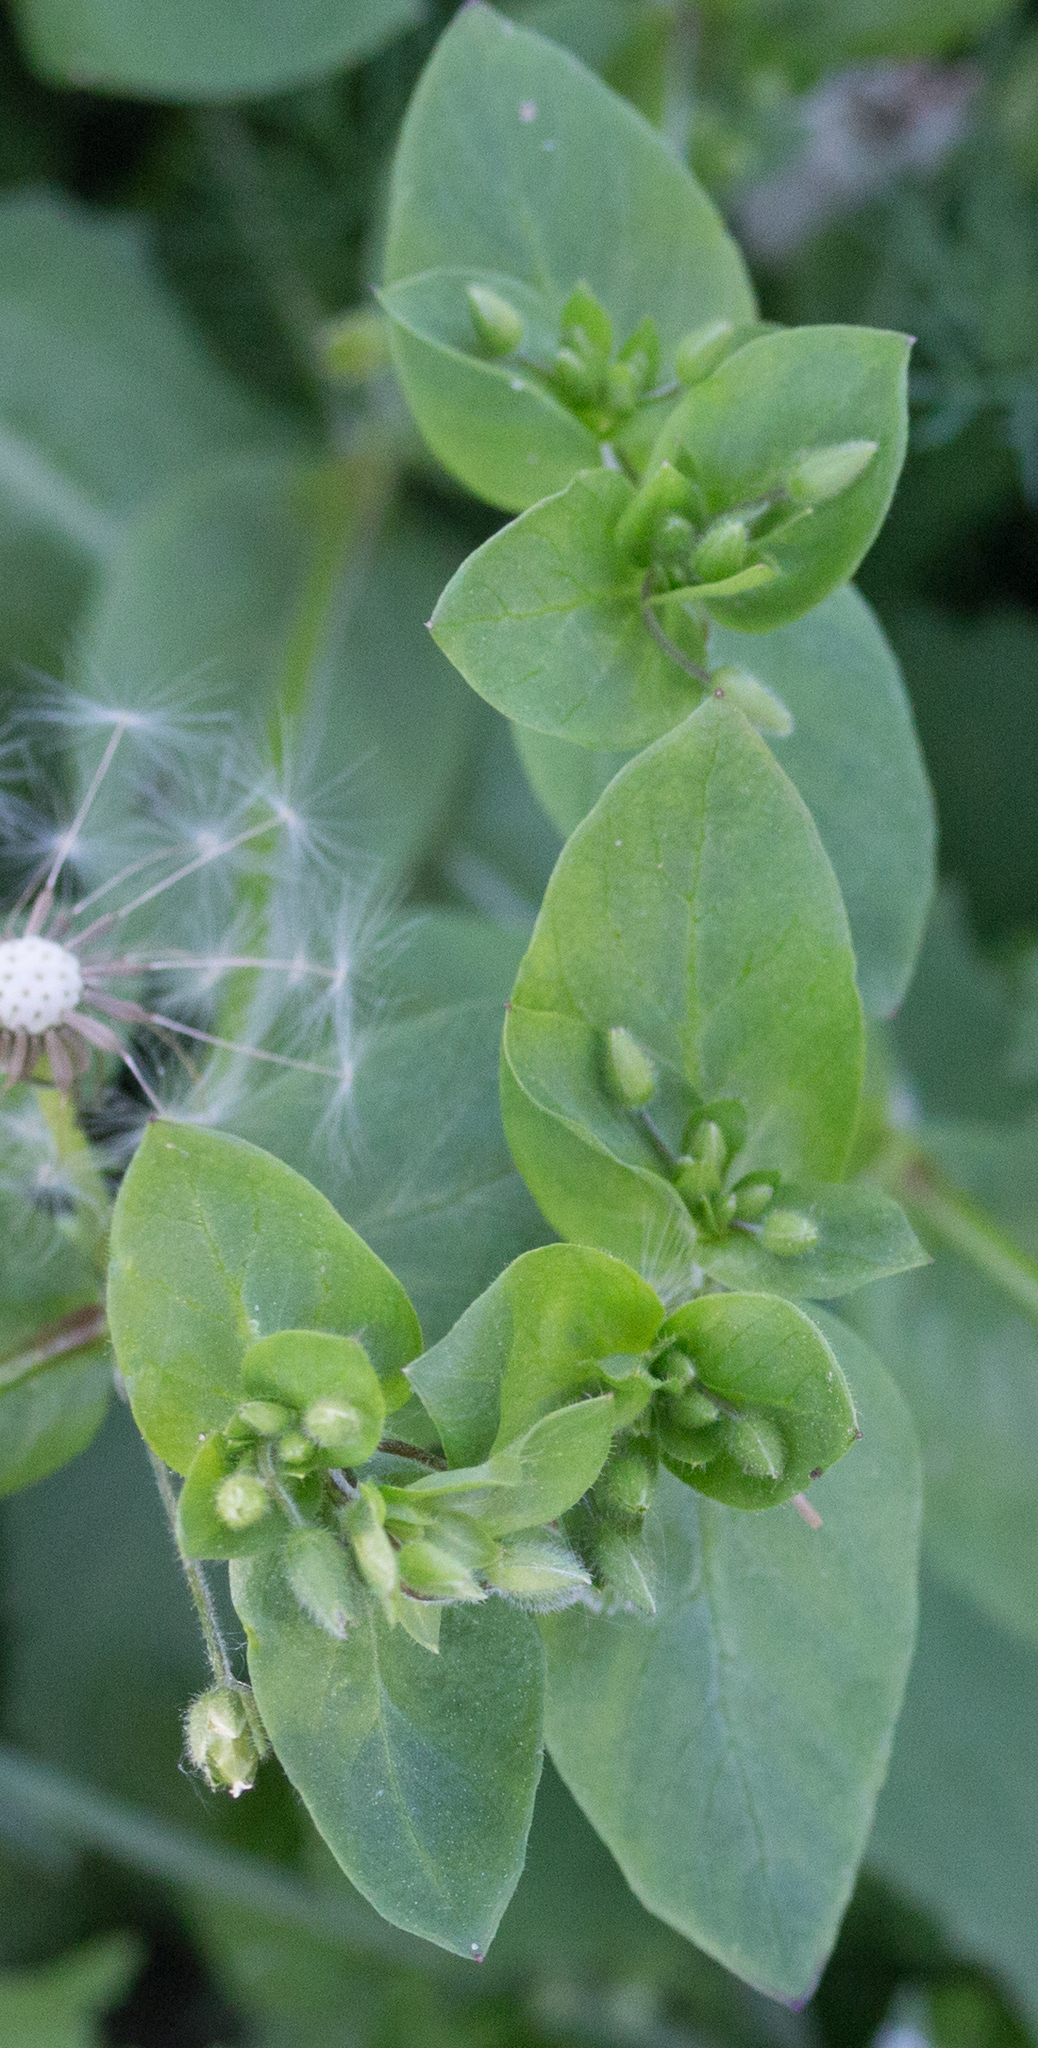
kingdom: Plantae
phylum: Tracheophyta
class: Magnoliopsida
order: Caryophyllales
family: Caryophyllaceae
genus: Stellaria
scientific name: Stellaria media
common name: Common chickweed
